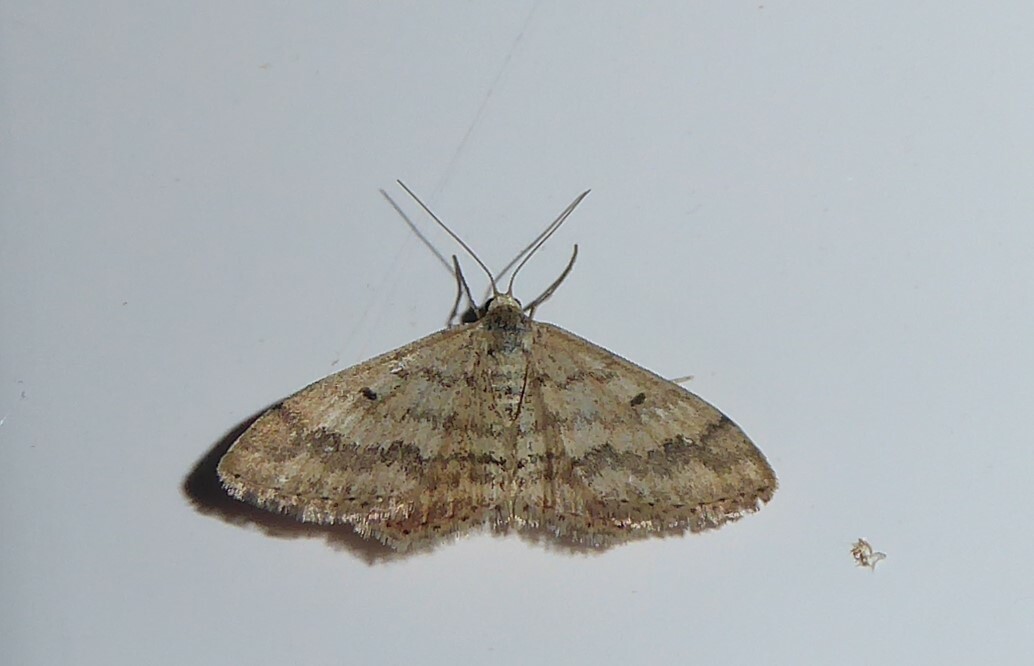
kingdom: Animalia
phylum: Arthropoda
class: Insecta
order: Lepidoptera
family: Geometridae
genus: Scopula
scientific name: Scopula rubraria
